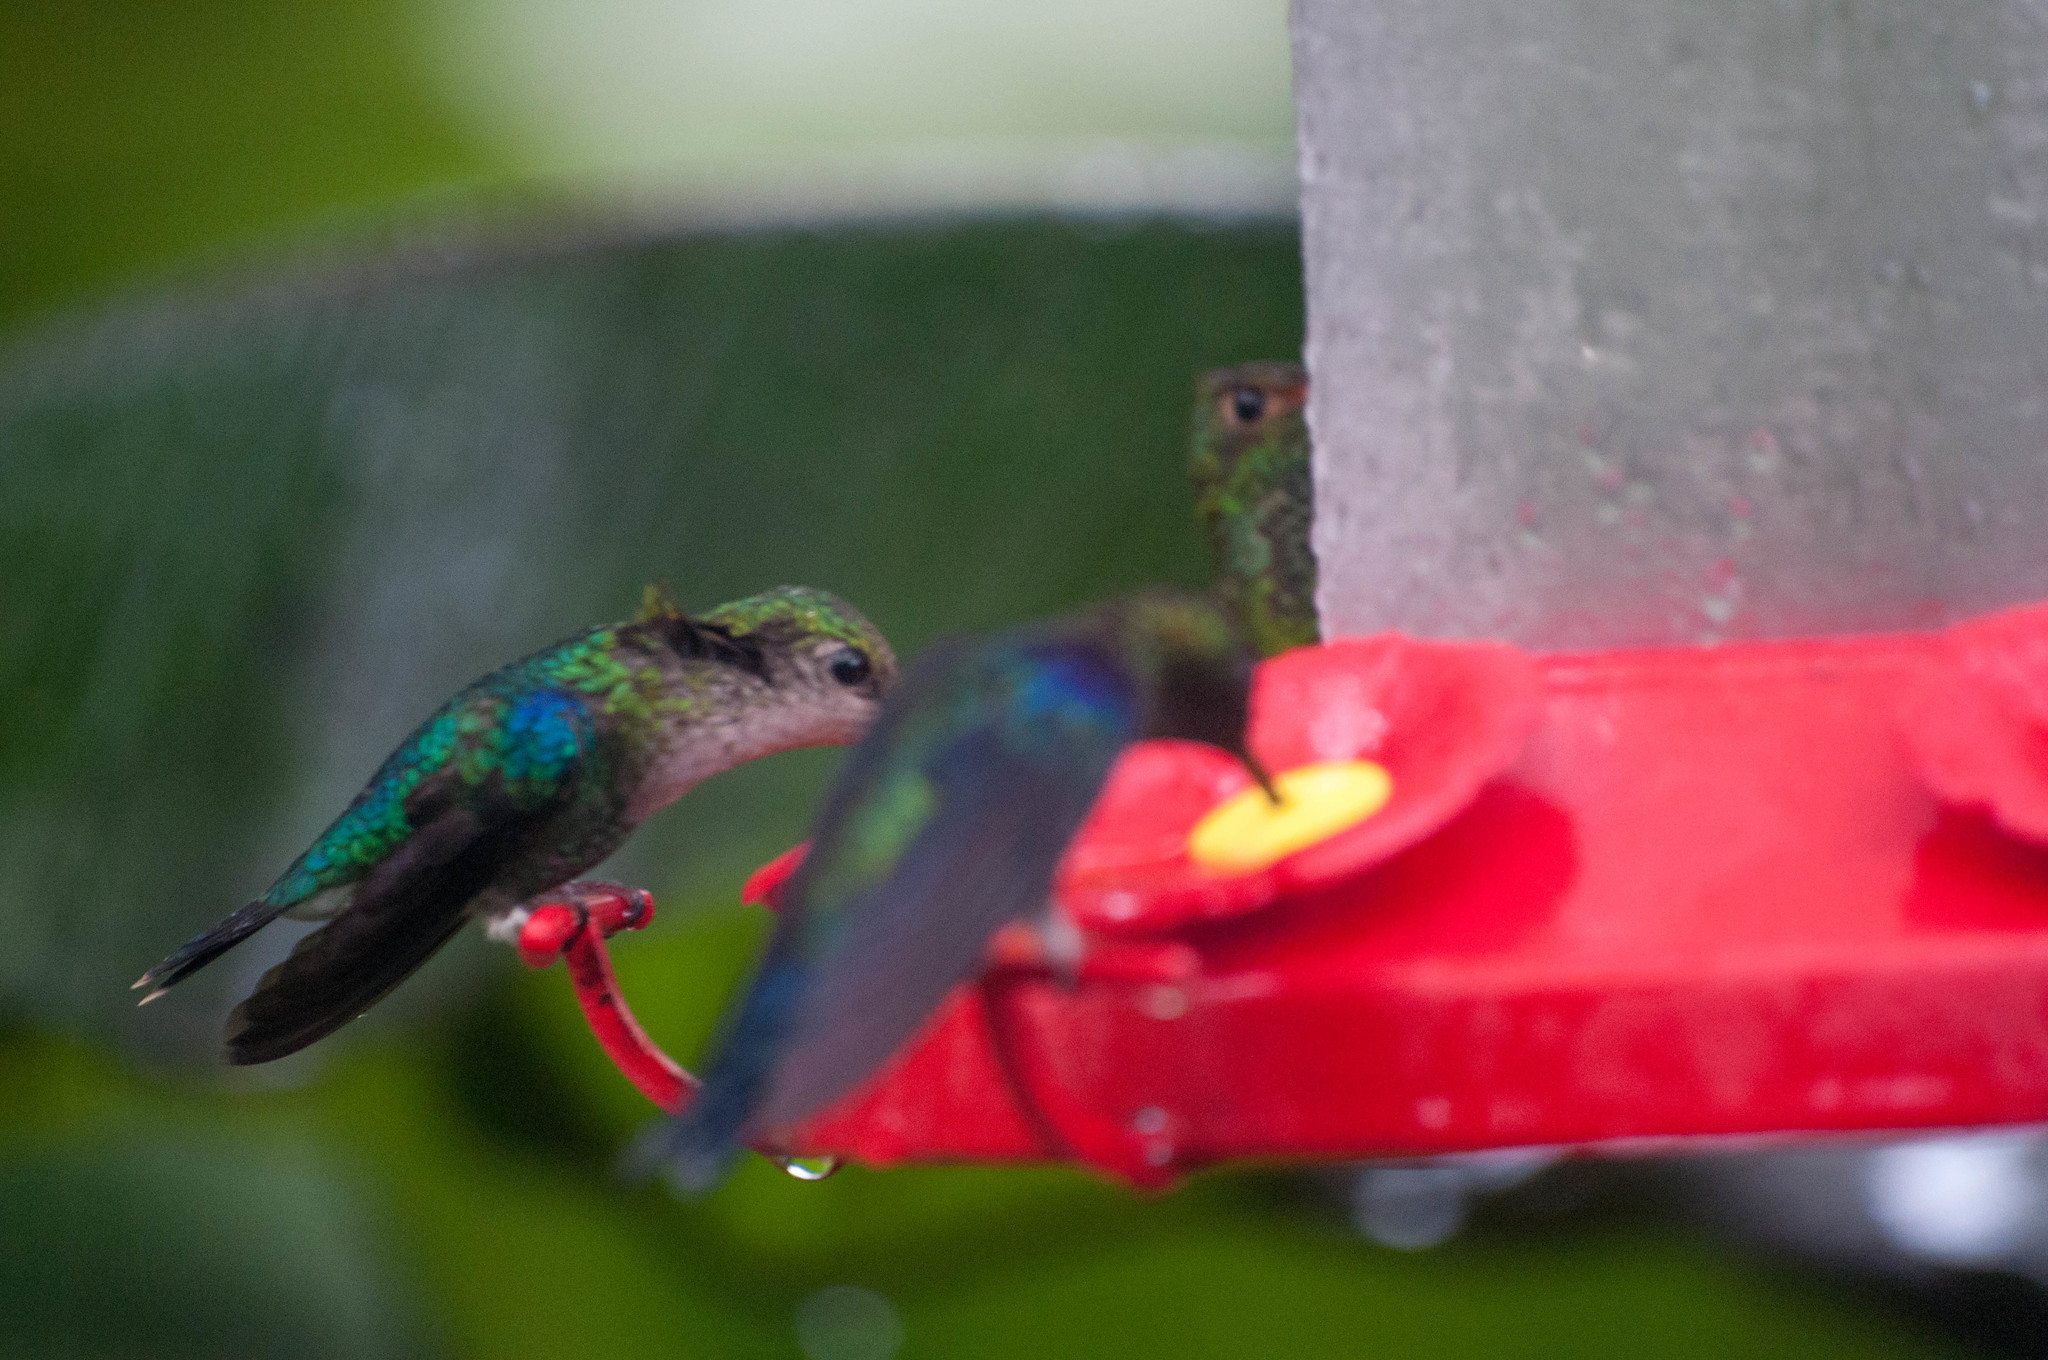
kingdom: Animalia
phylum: Chordata
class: Aves
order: Apodiformes
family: Trochilidae
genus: Thalurania
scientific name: Thalurania colombica
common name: Crowned woodnymph
